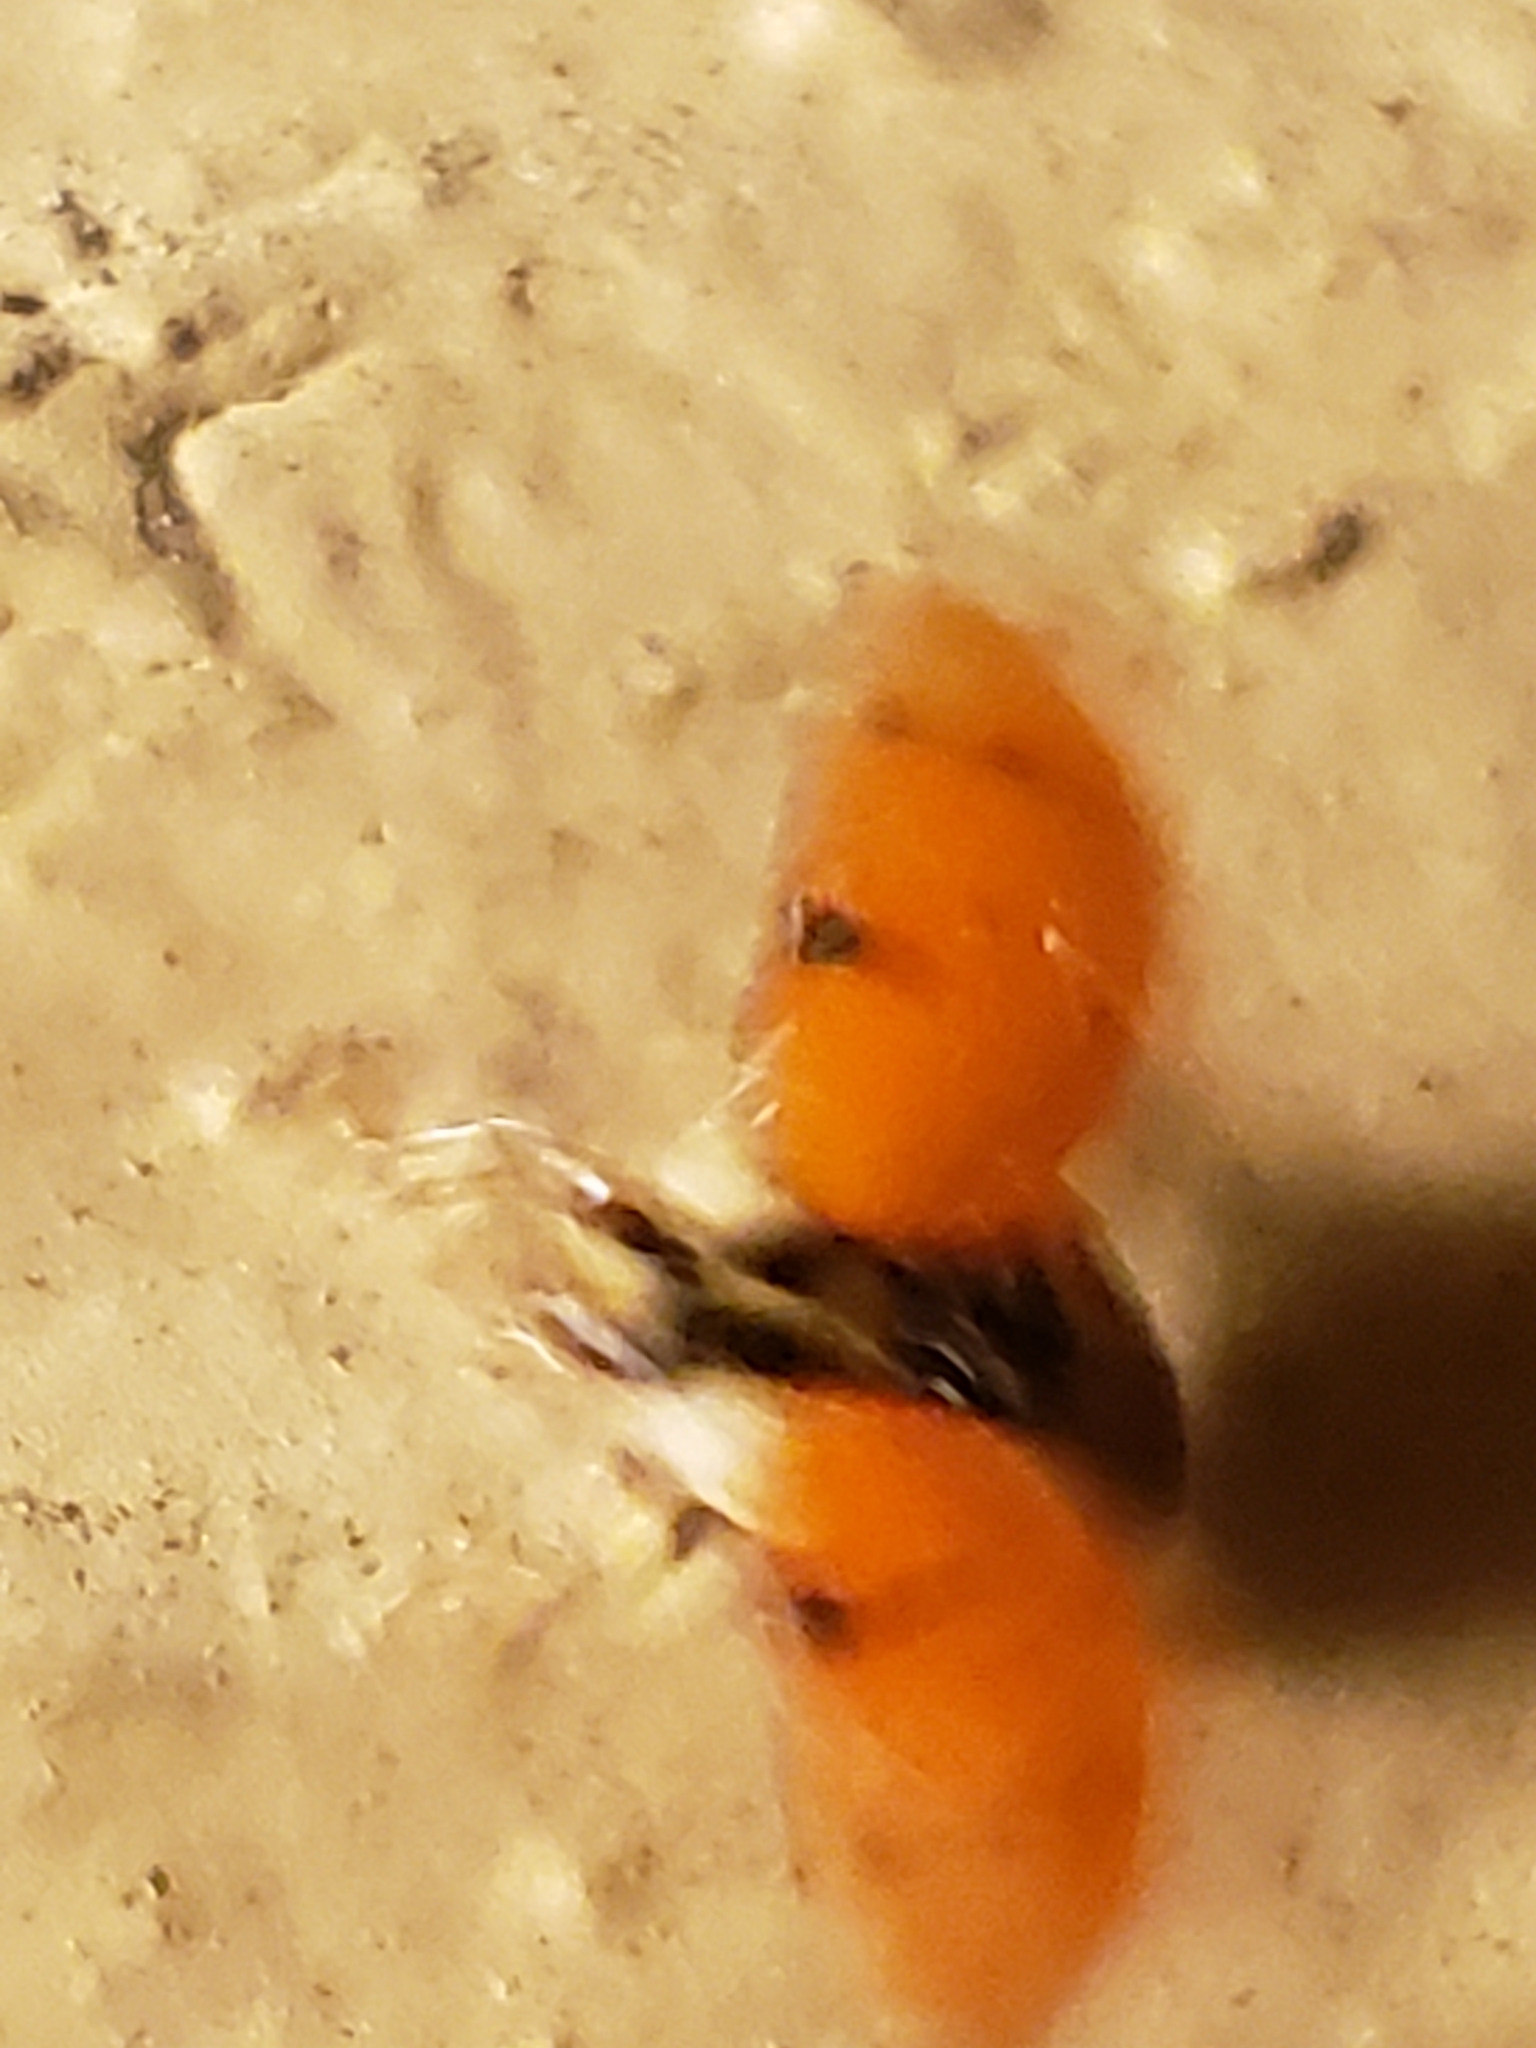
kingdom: Animalia
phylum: Arthropoda
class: Insecta
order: Coleoptera
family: Coccinellidae
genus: Harmonia
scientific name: Harmonia axyridis
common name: Harlequin ladybird
